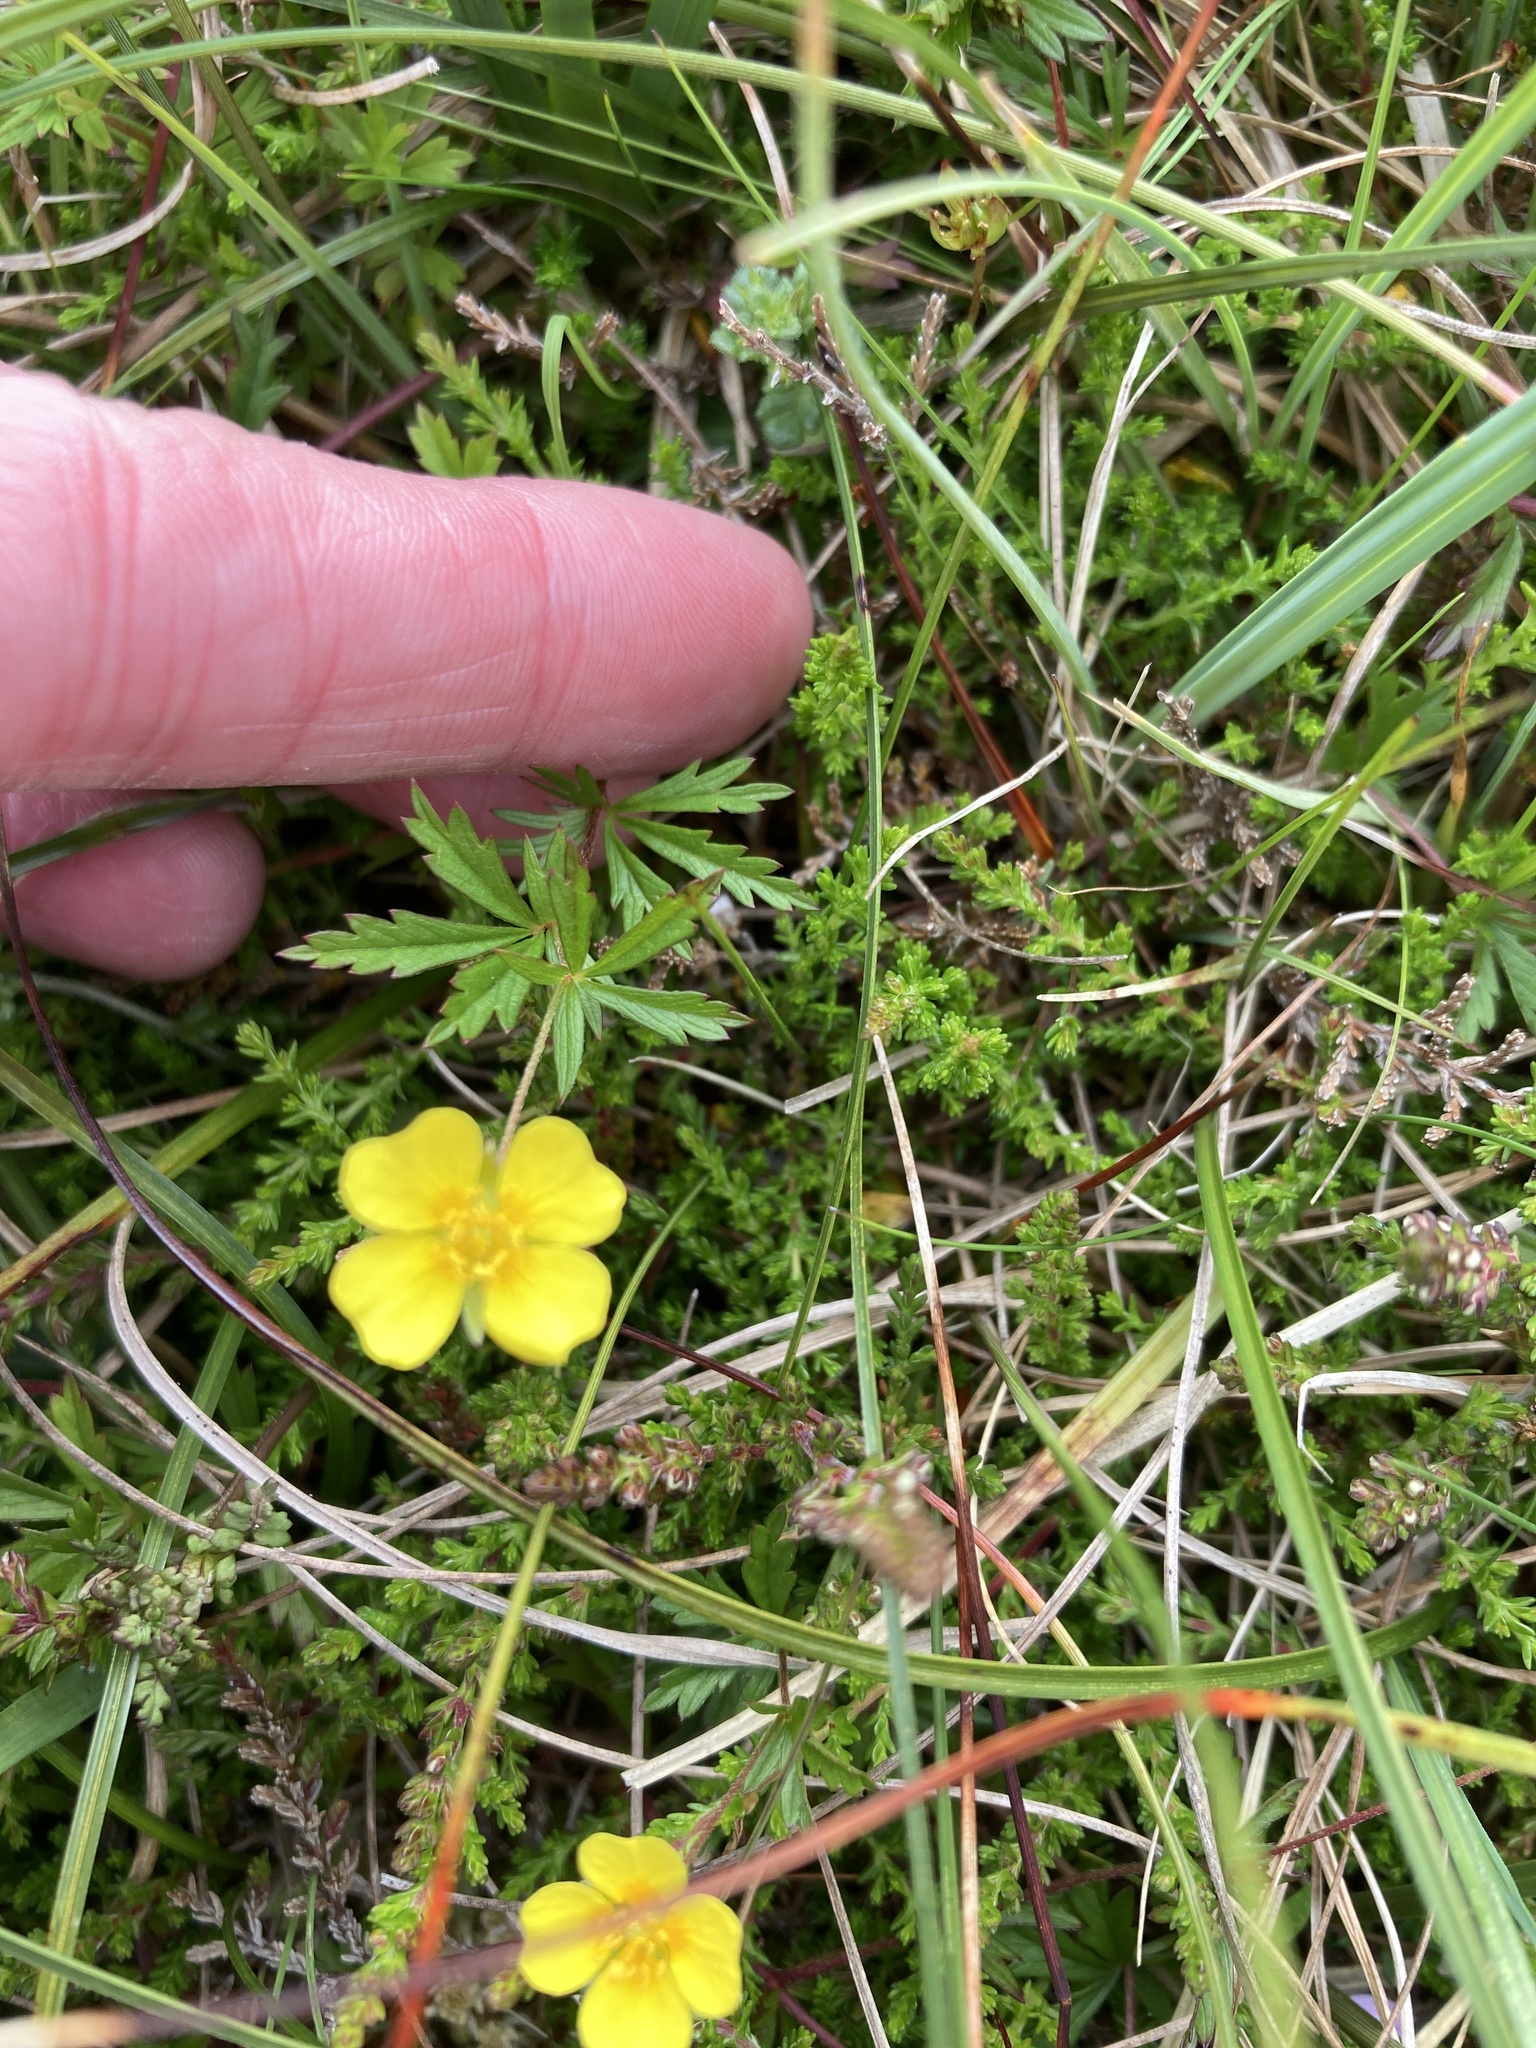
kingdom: Plantae
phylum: Tracheophyta
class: Magnoliopsida
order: Rosales
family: Rosaceae
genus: Potentilla
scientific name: Potentilla erecta
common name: Tormentil
